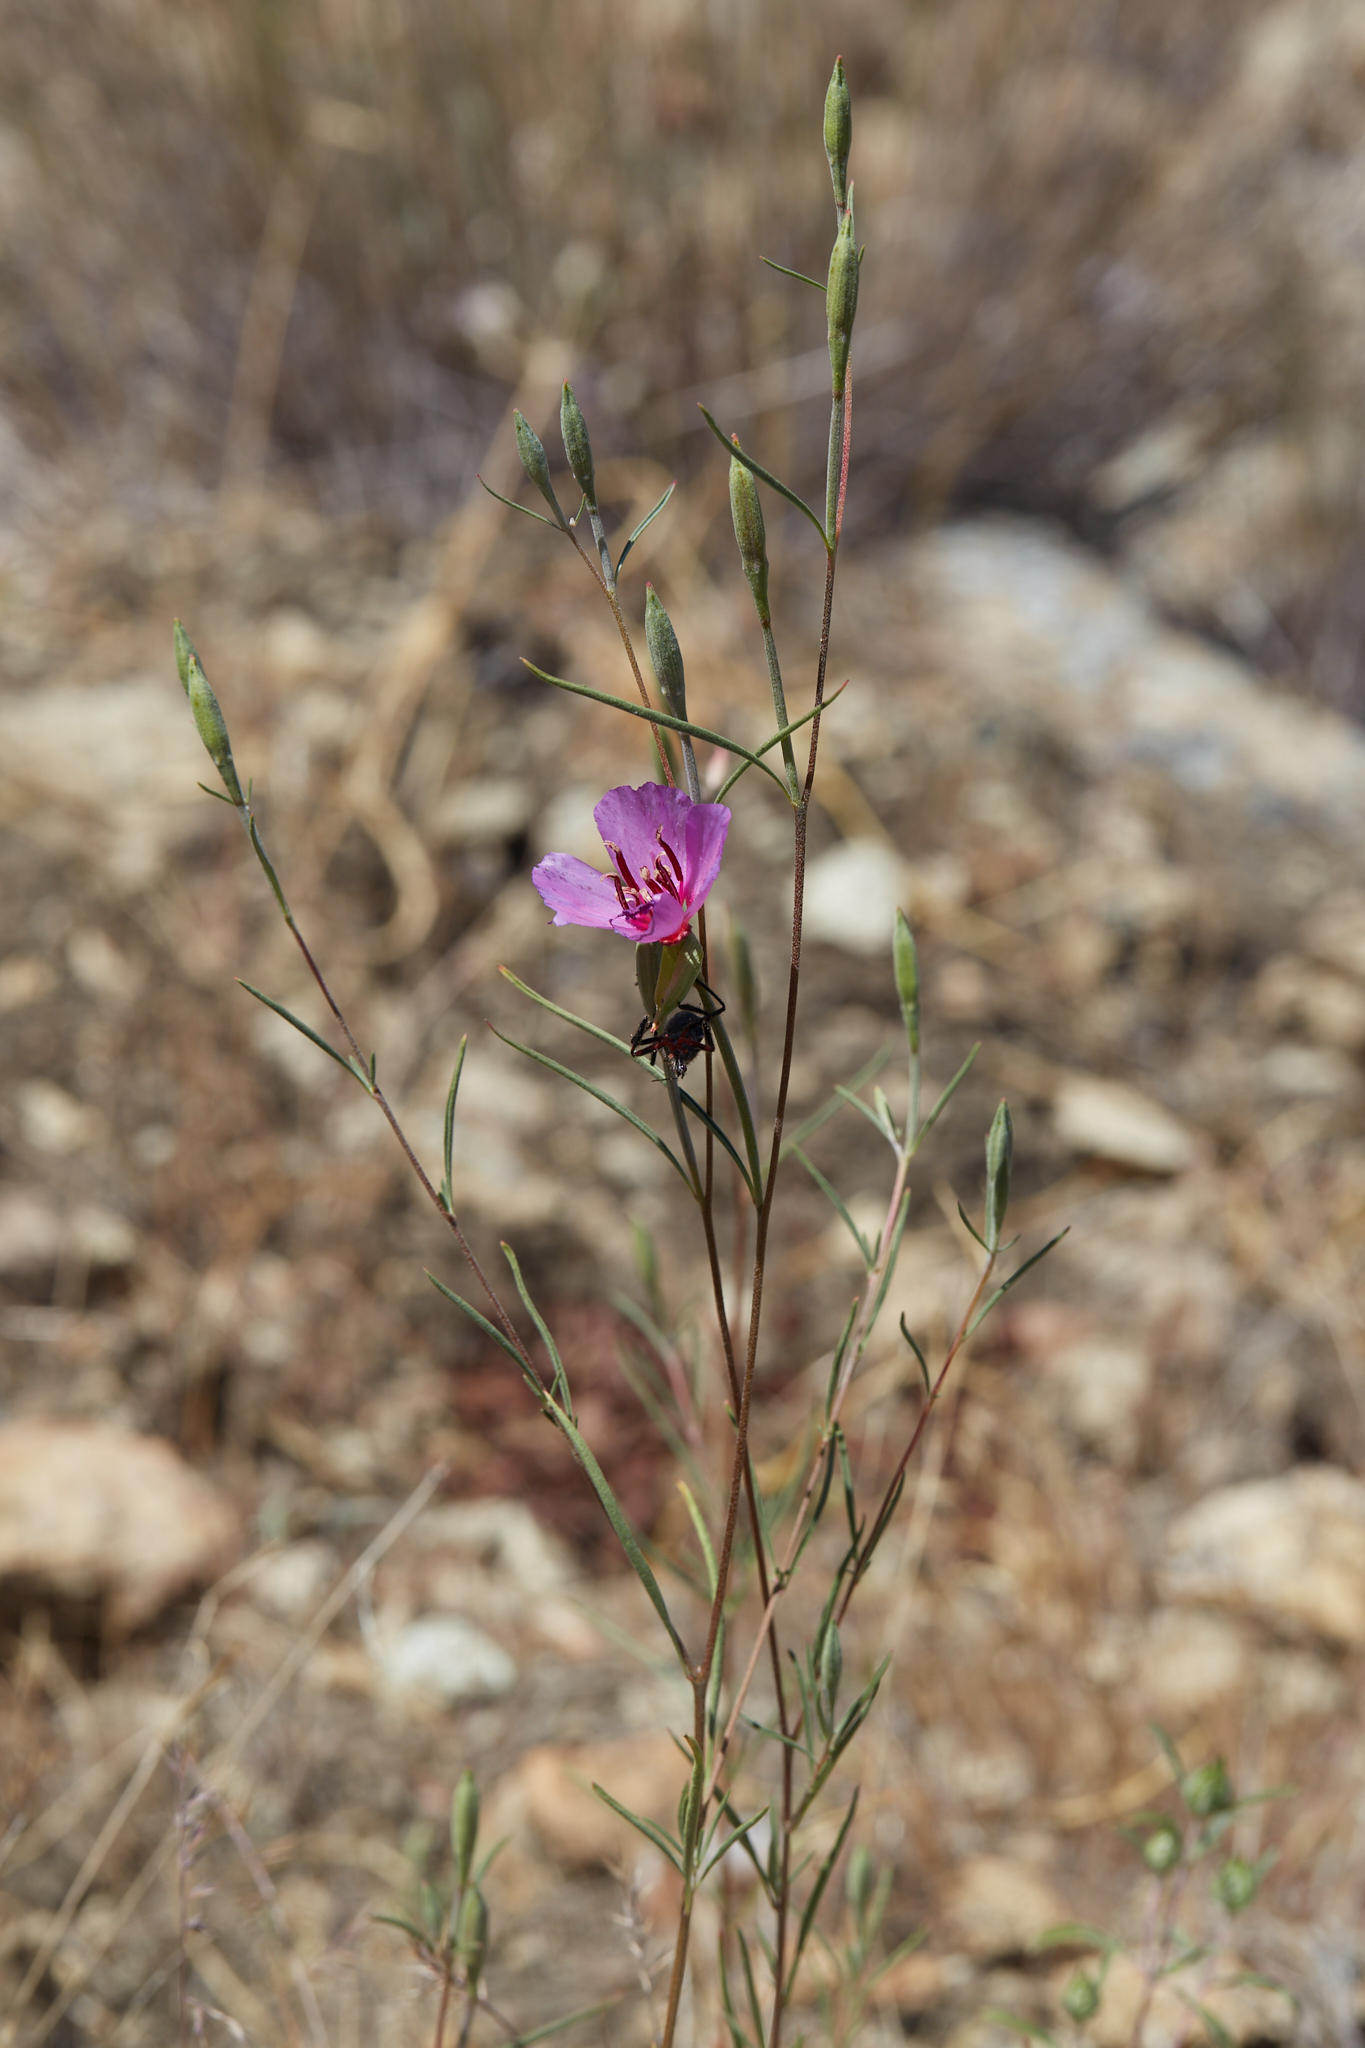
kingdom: Plantae
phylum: Tracheophyta
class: Magnoliopsida
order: Myrtales
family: Onagraceae
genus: Clarkia
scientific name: Clarkia rubicunda
